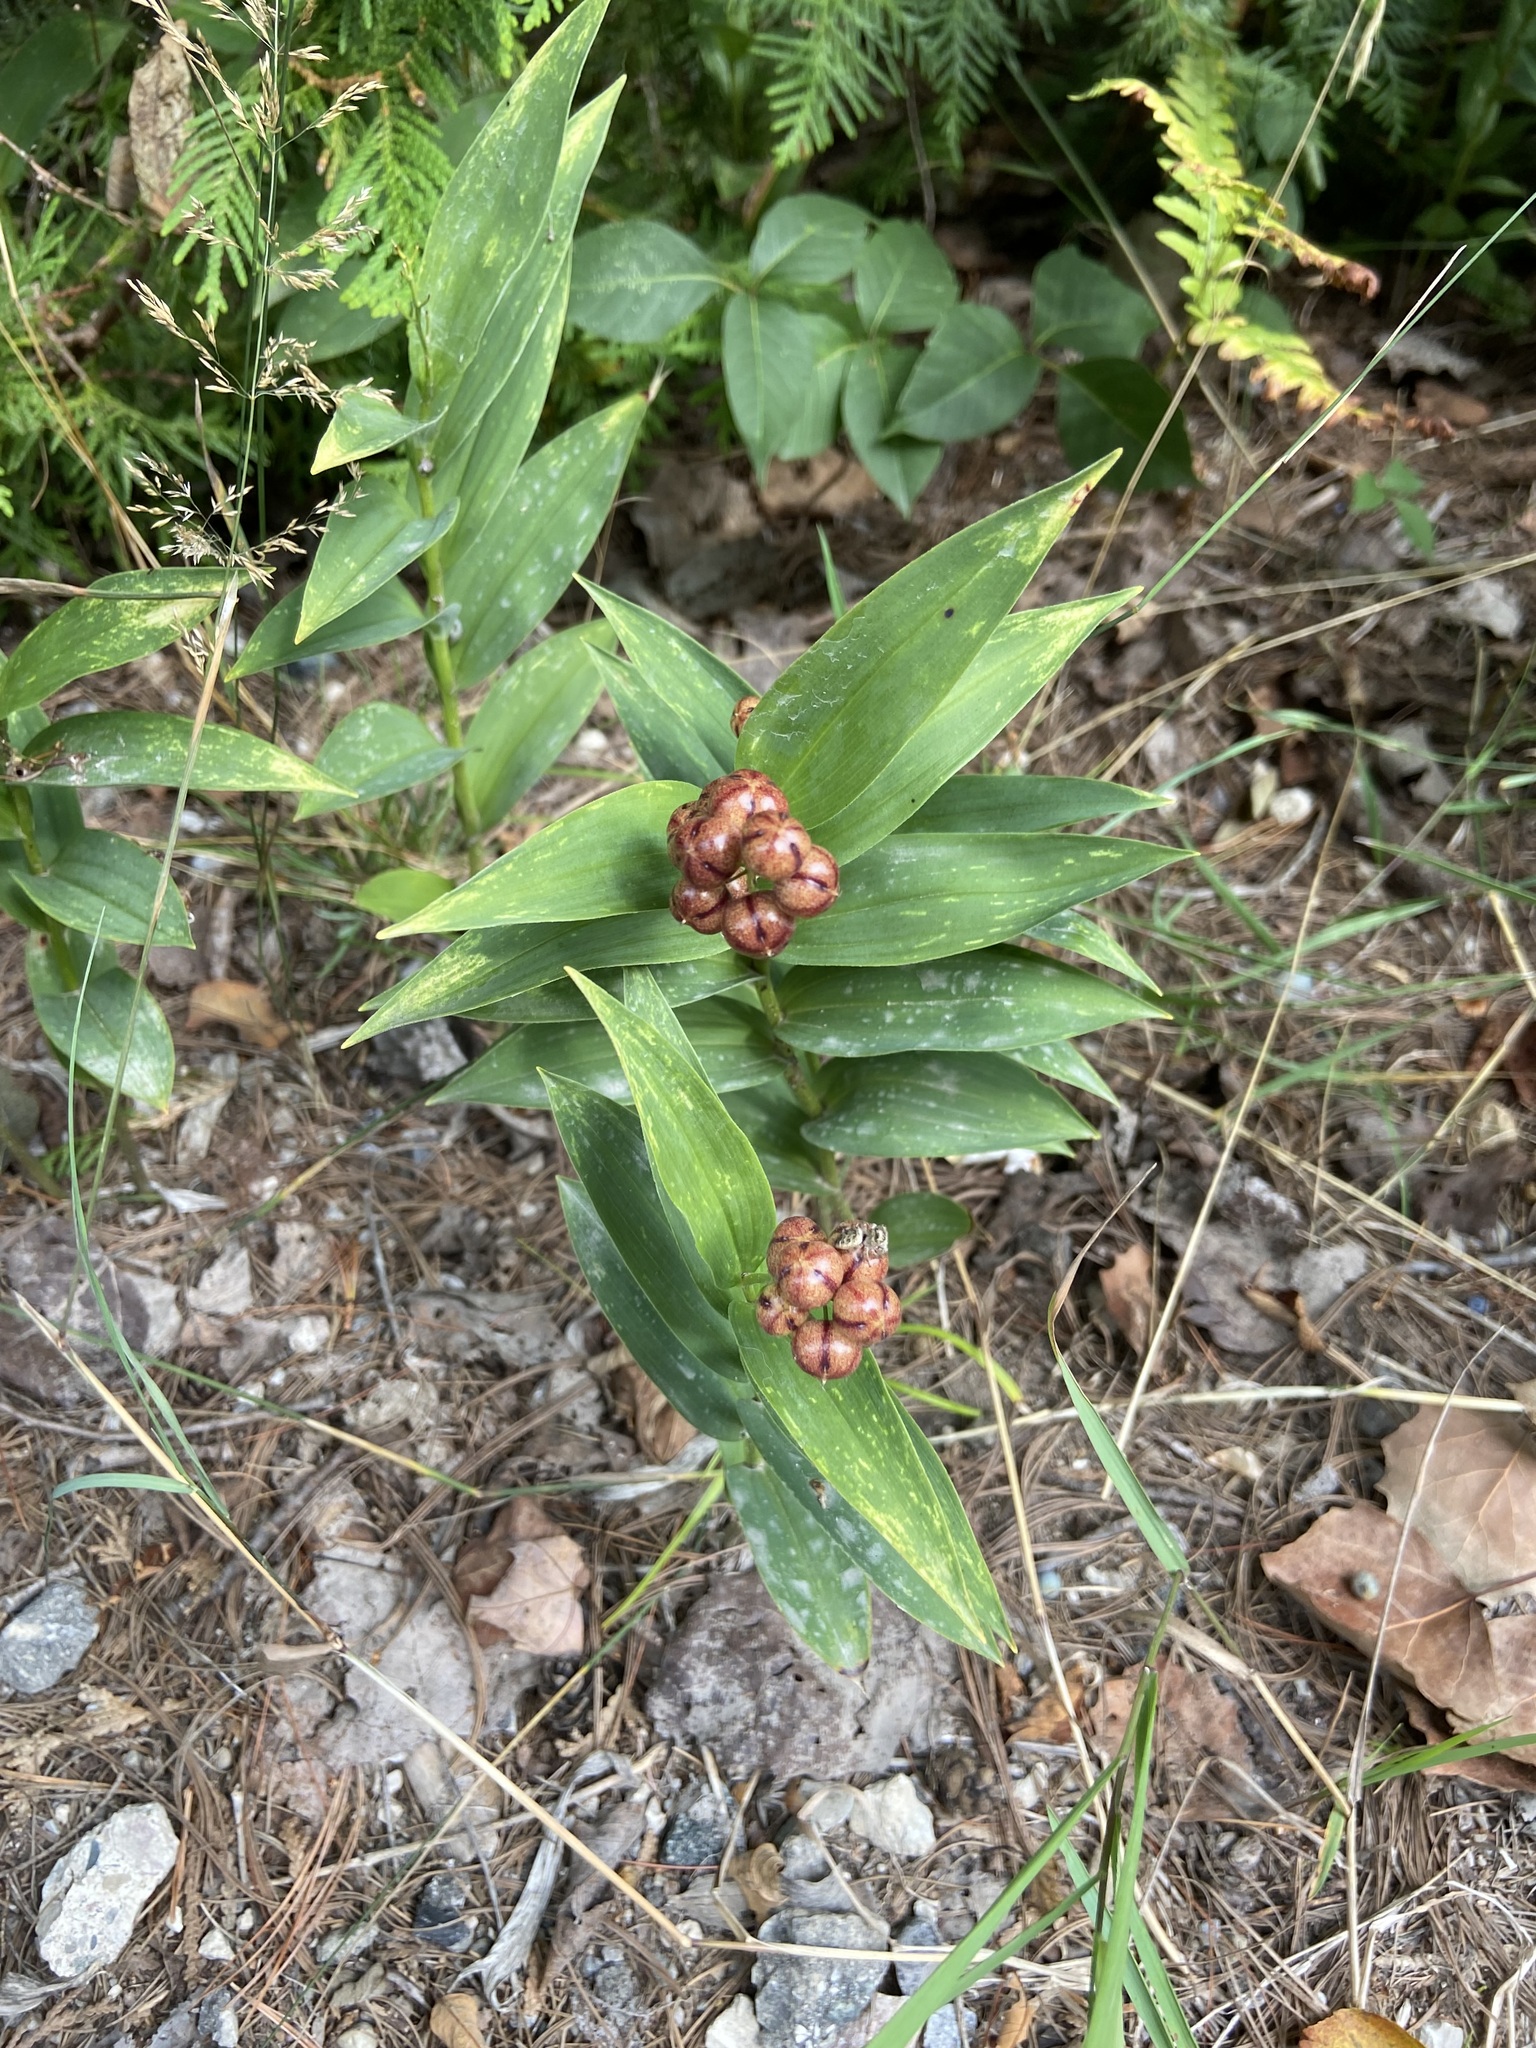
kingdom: Plantae
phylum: Tracheophyta
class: Liliopsida
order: Asparagales
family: Asparagaceae
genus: Maianthemum
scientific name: Maianthemum stellatum
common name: Little false solomon's seal
